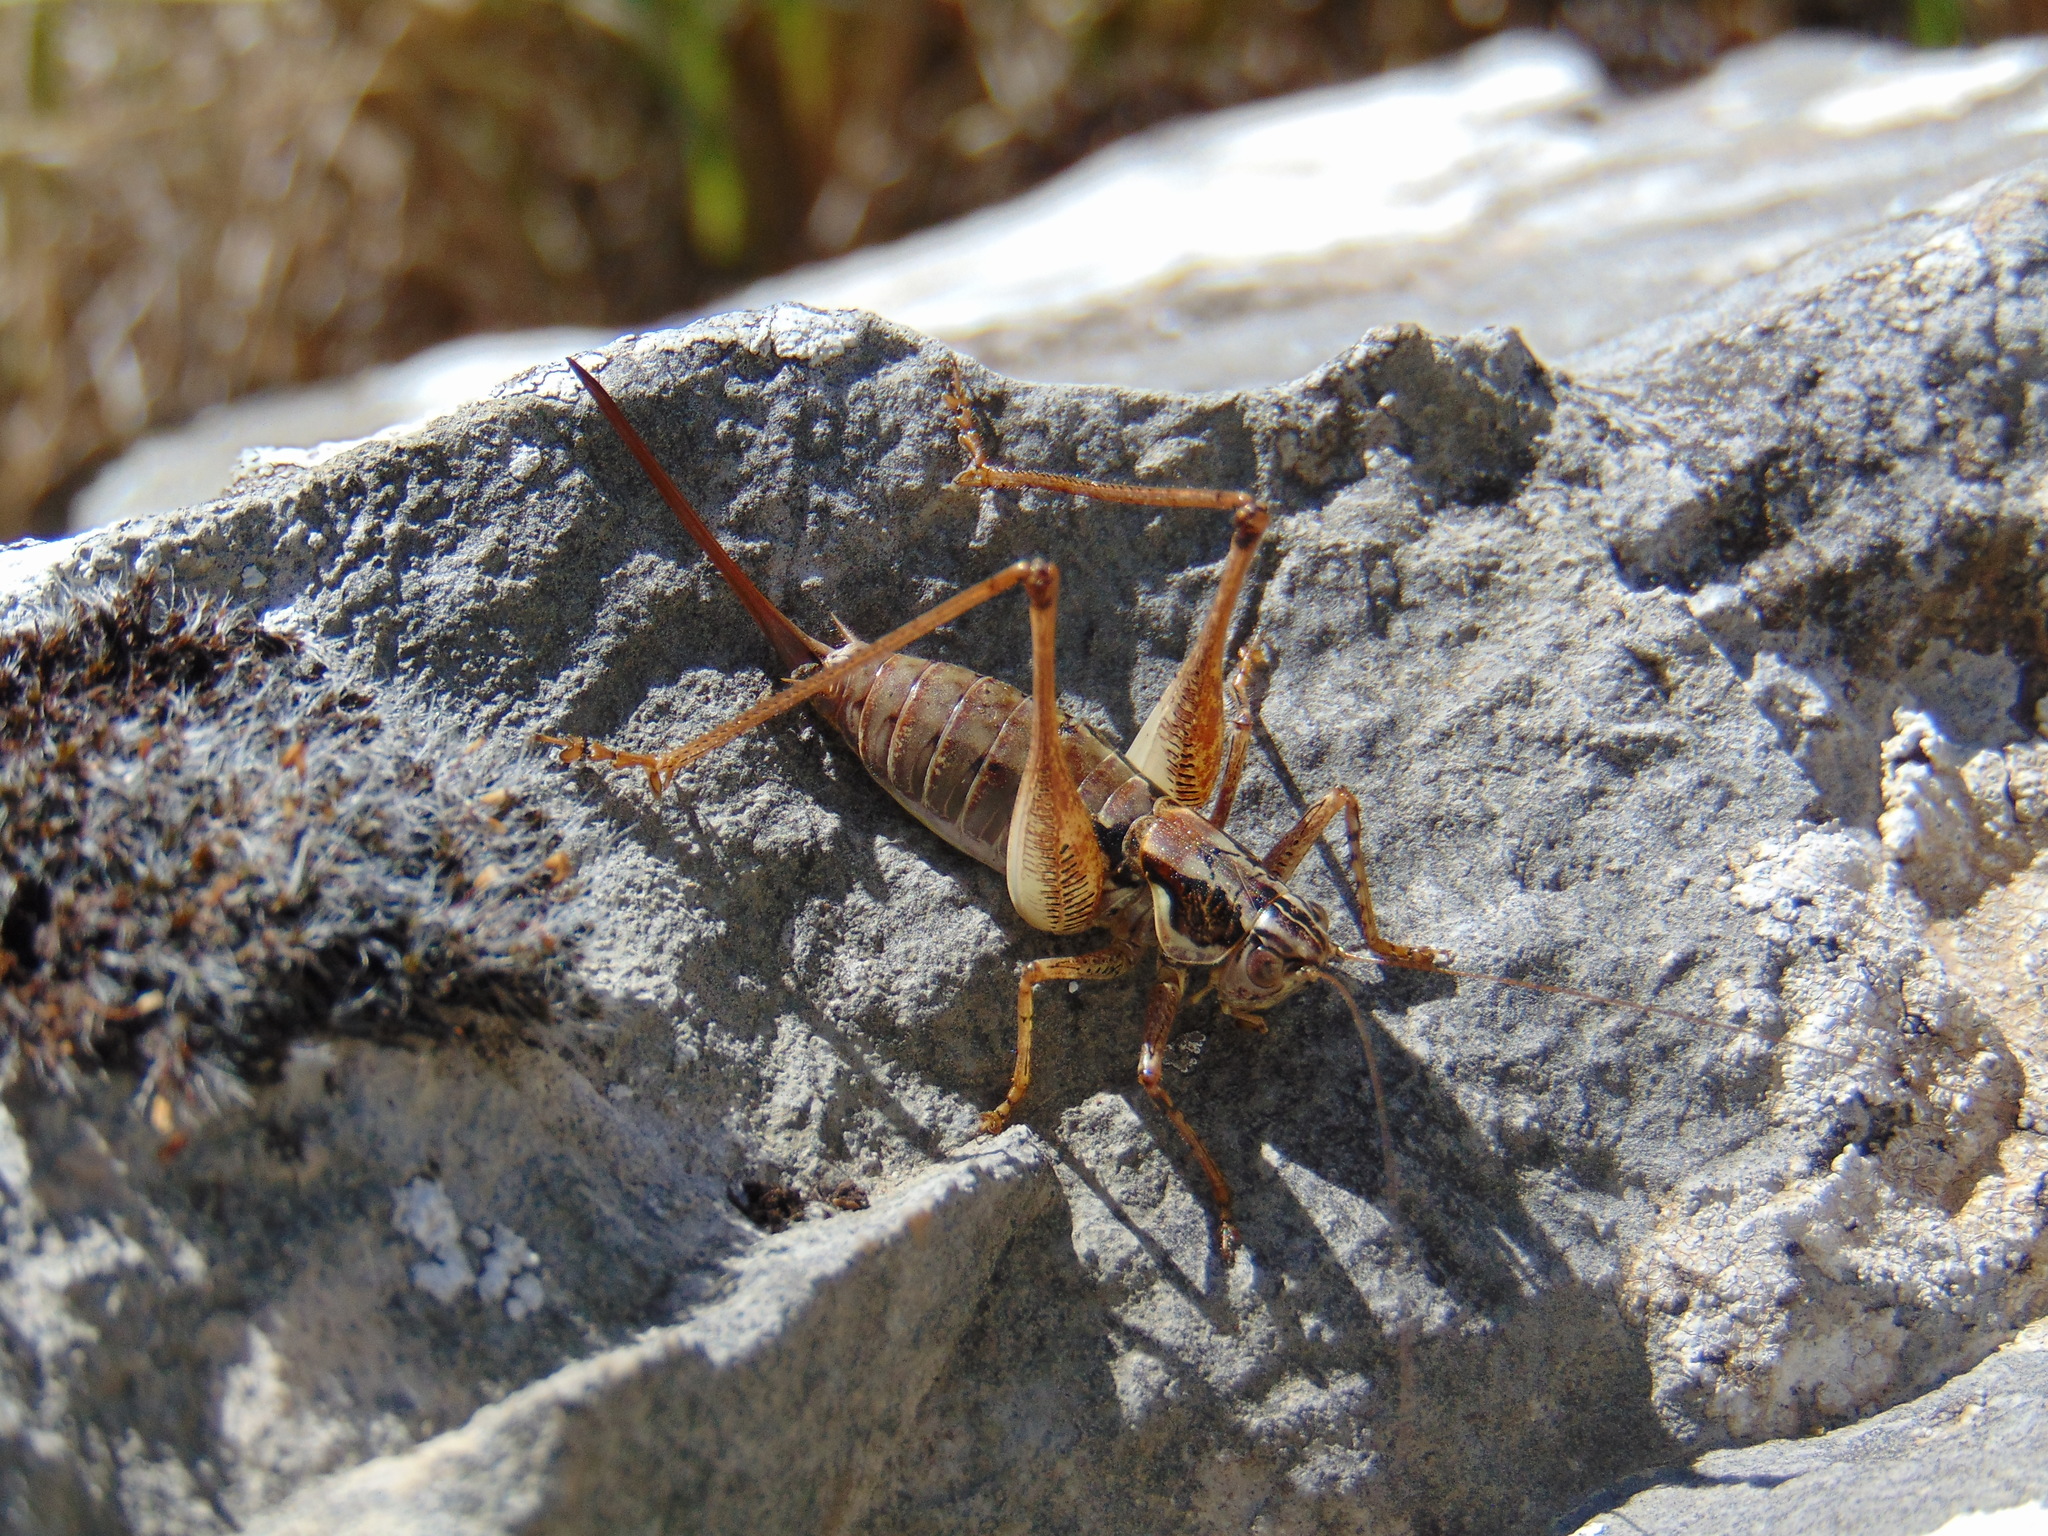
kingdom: Animalia
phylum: Arthropoda
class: Insecta
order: Orthoptera
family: Tettigoniidae
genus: Pachytrachis
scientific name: Pachytrachis striolatus
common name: Striated bush-cricket
